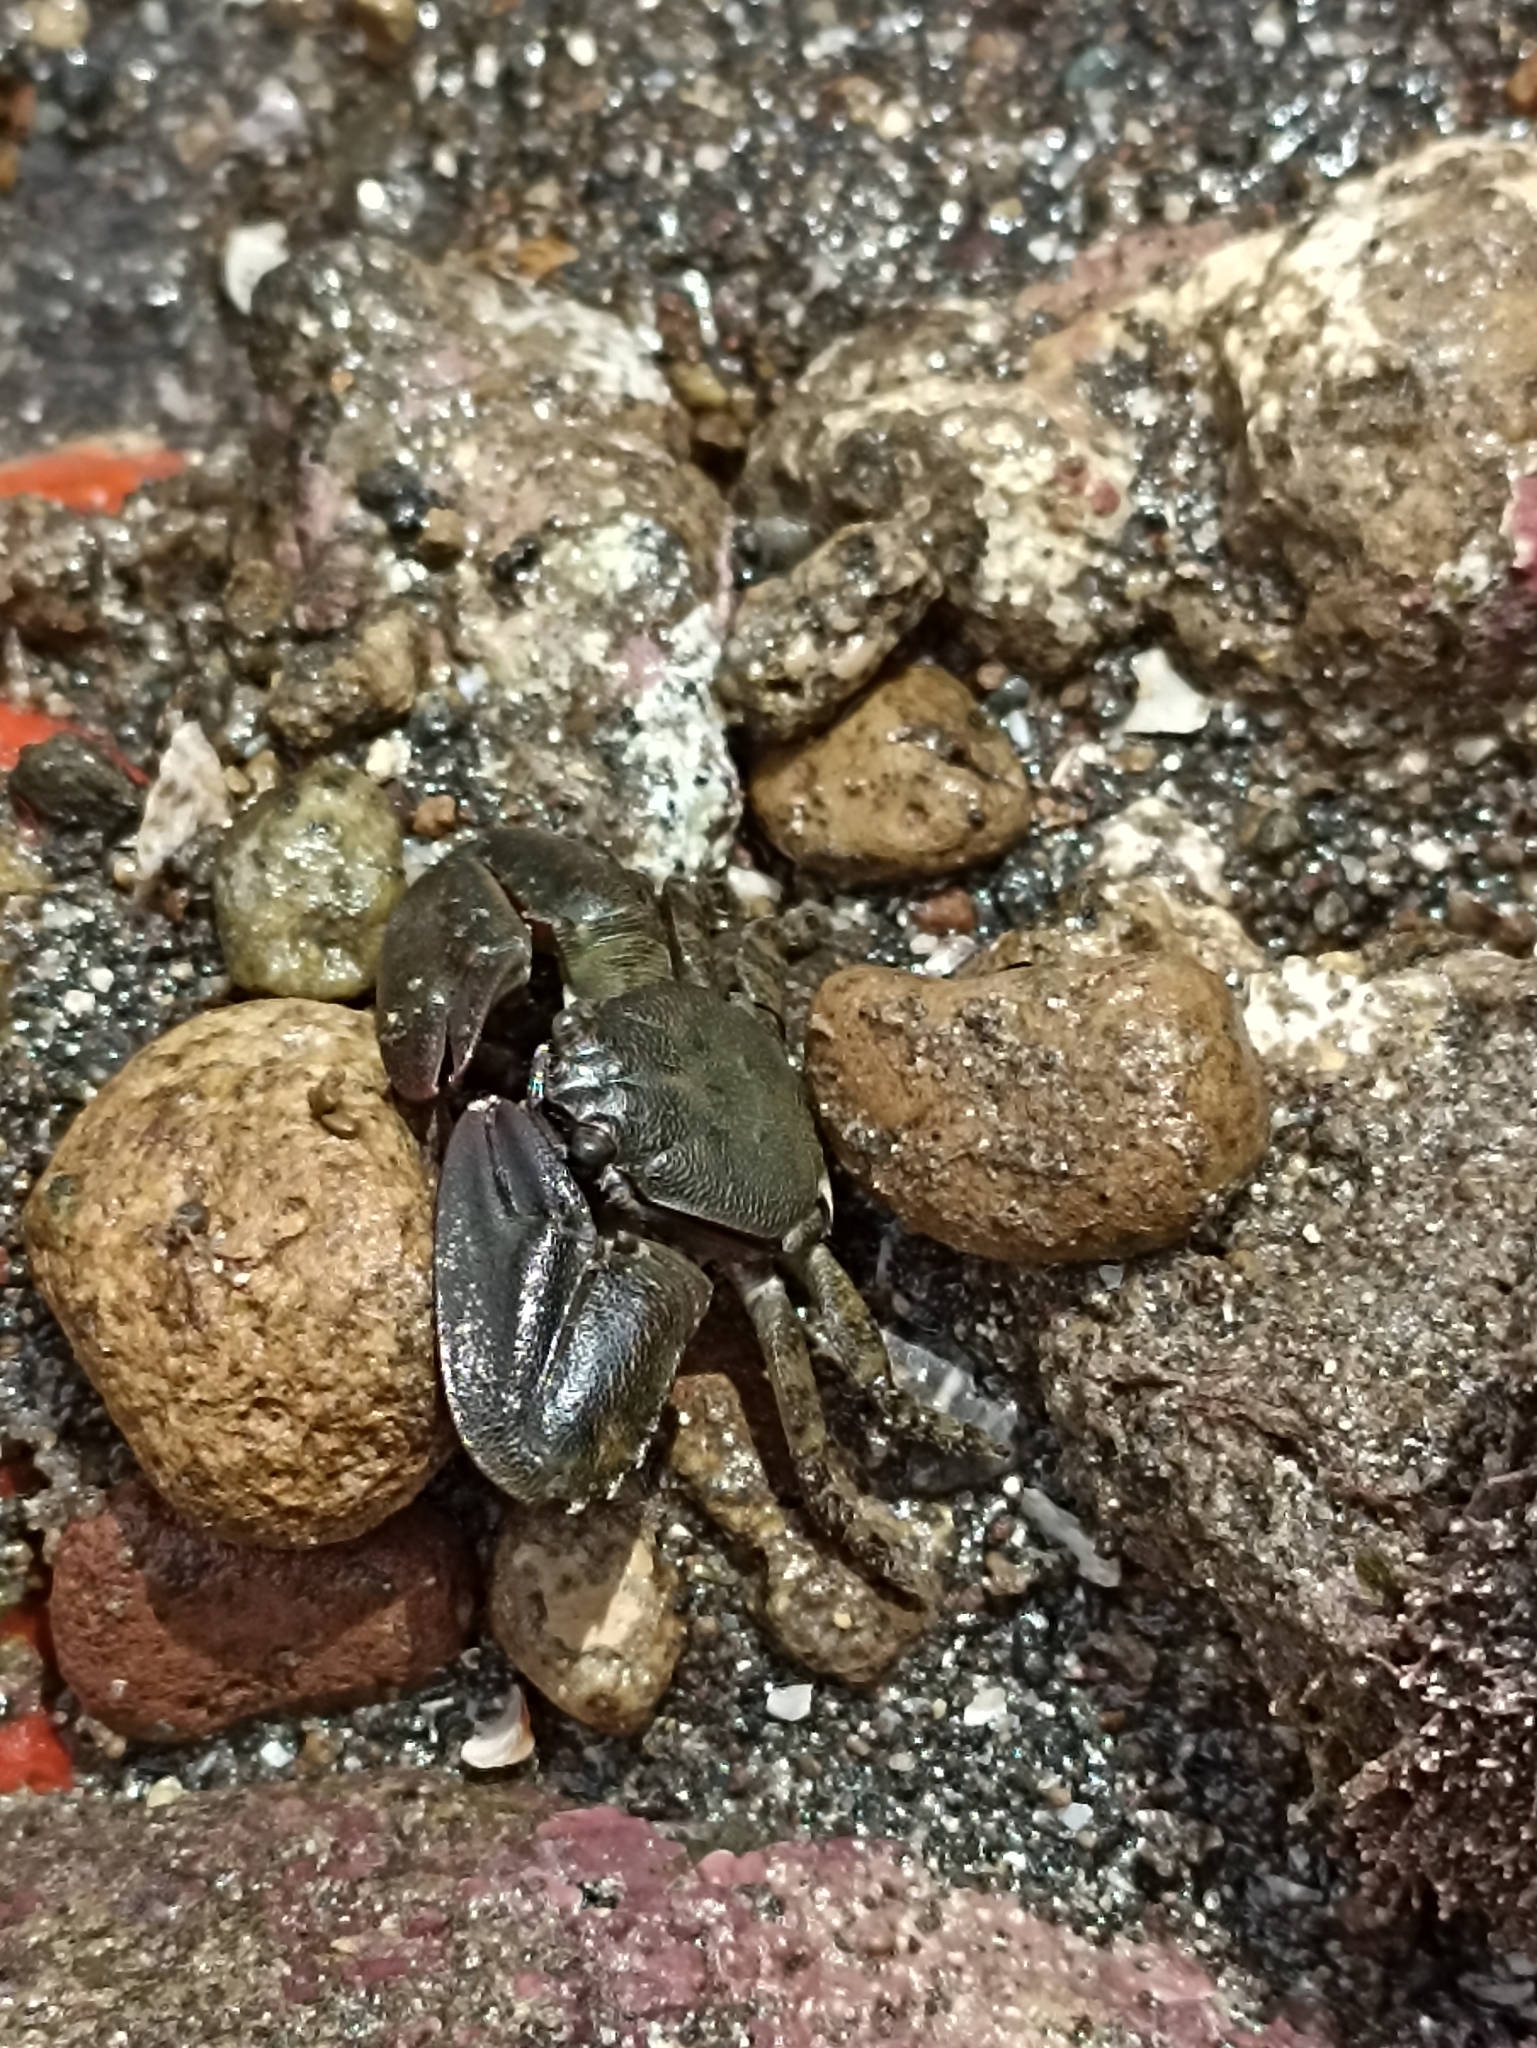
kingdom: Animalia
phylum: Arthropoda
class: Malacostraca
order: Decapoda
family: Porcellanidae
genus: Petrolisthes
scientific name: Petrolisthes elongatus
